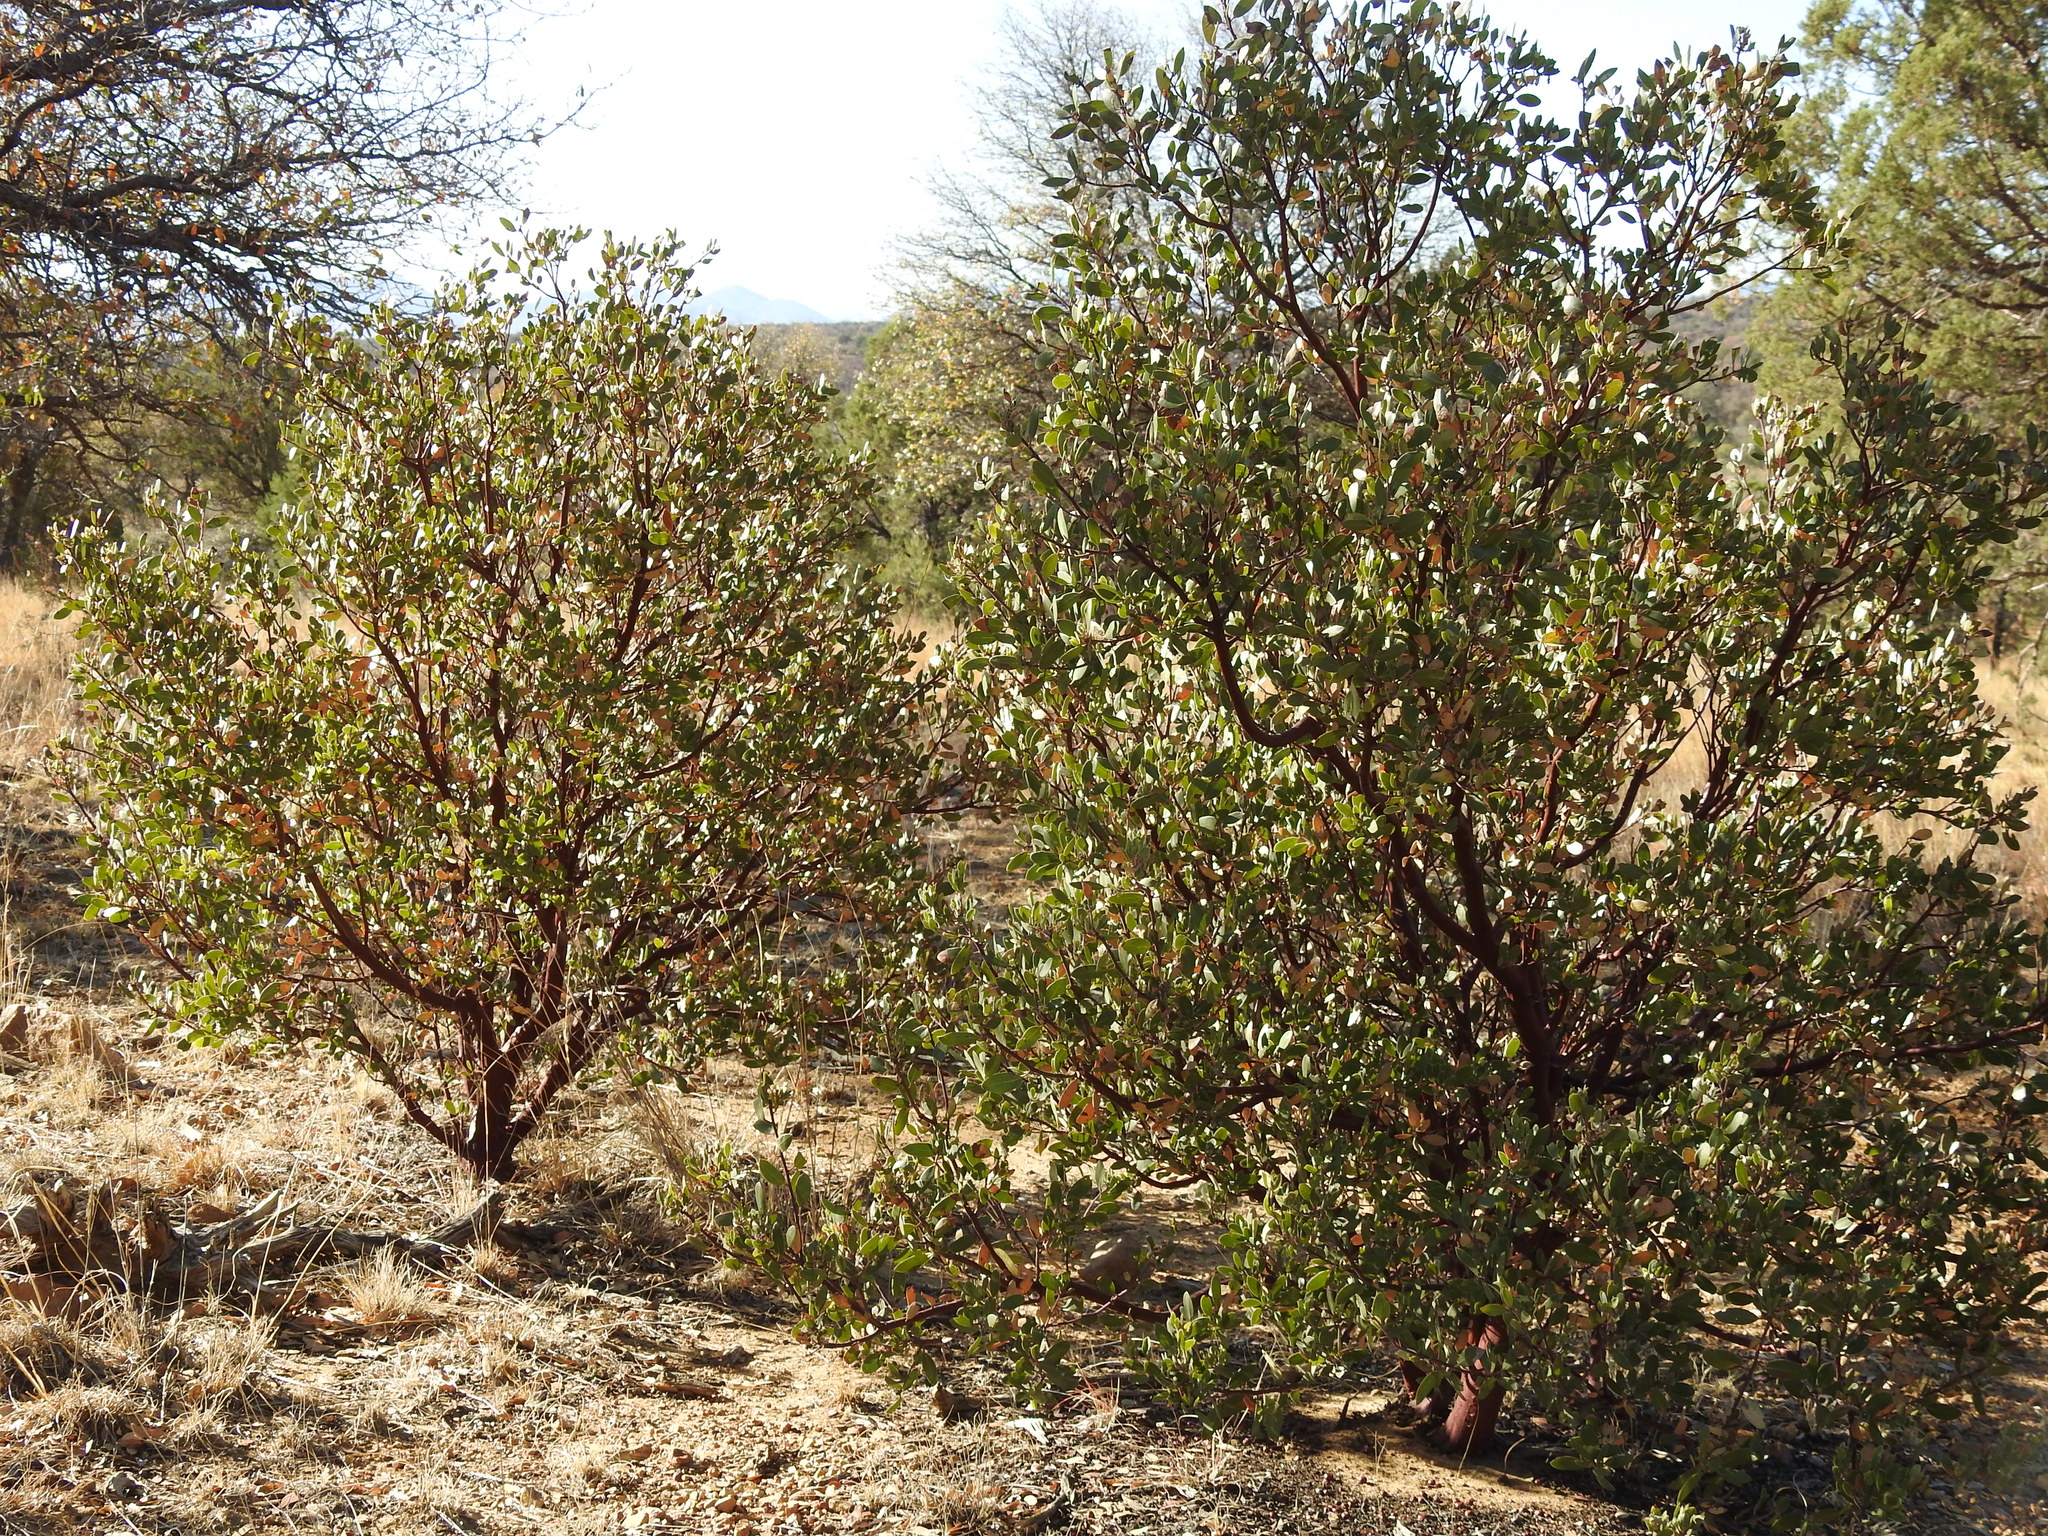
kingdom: Plantae
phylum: Tracheophyta
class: Magnoliopsida
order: Ericales
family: Ericaceae
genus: Arctostaphylos
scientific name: Arctostaphylos pungens
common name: Mexican manzanita
